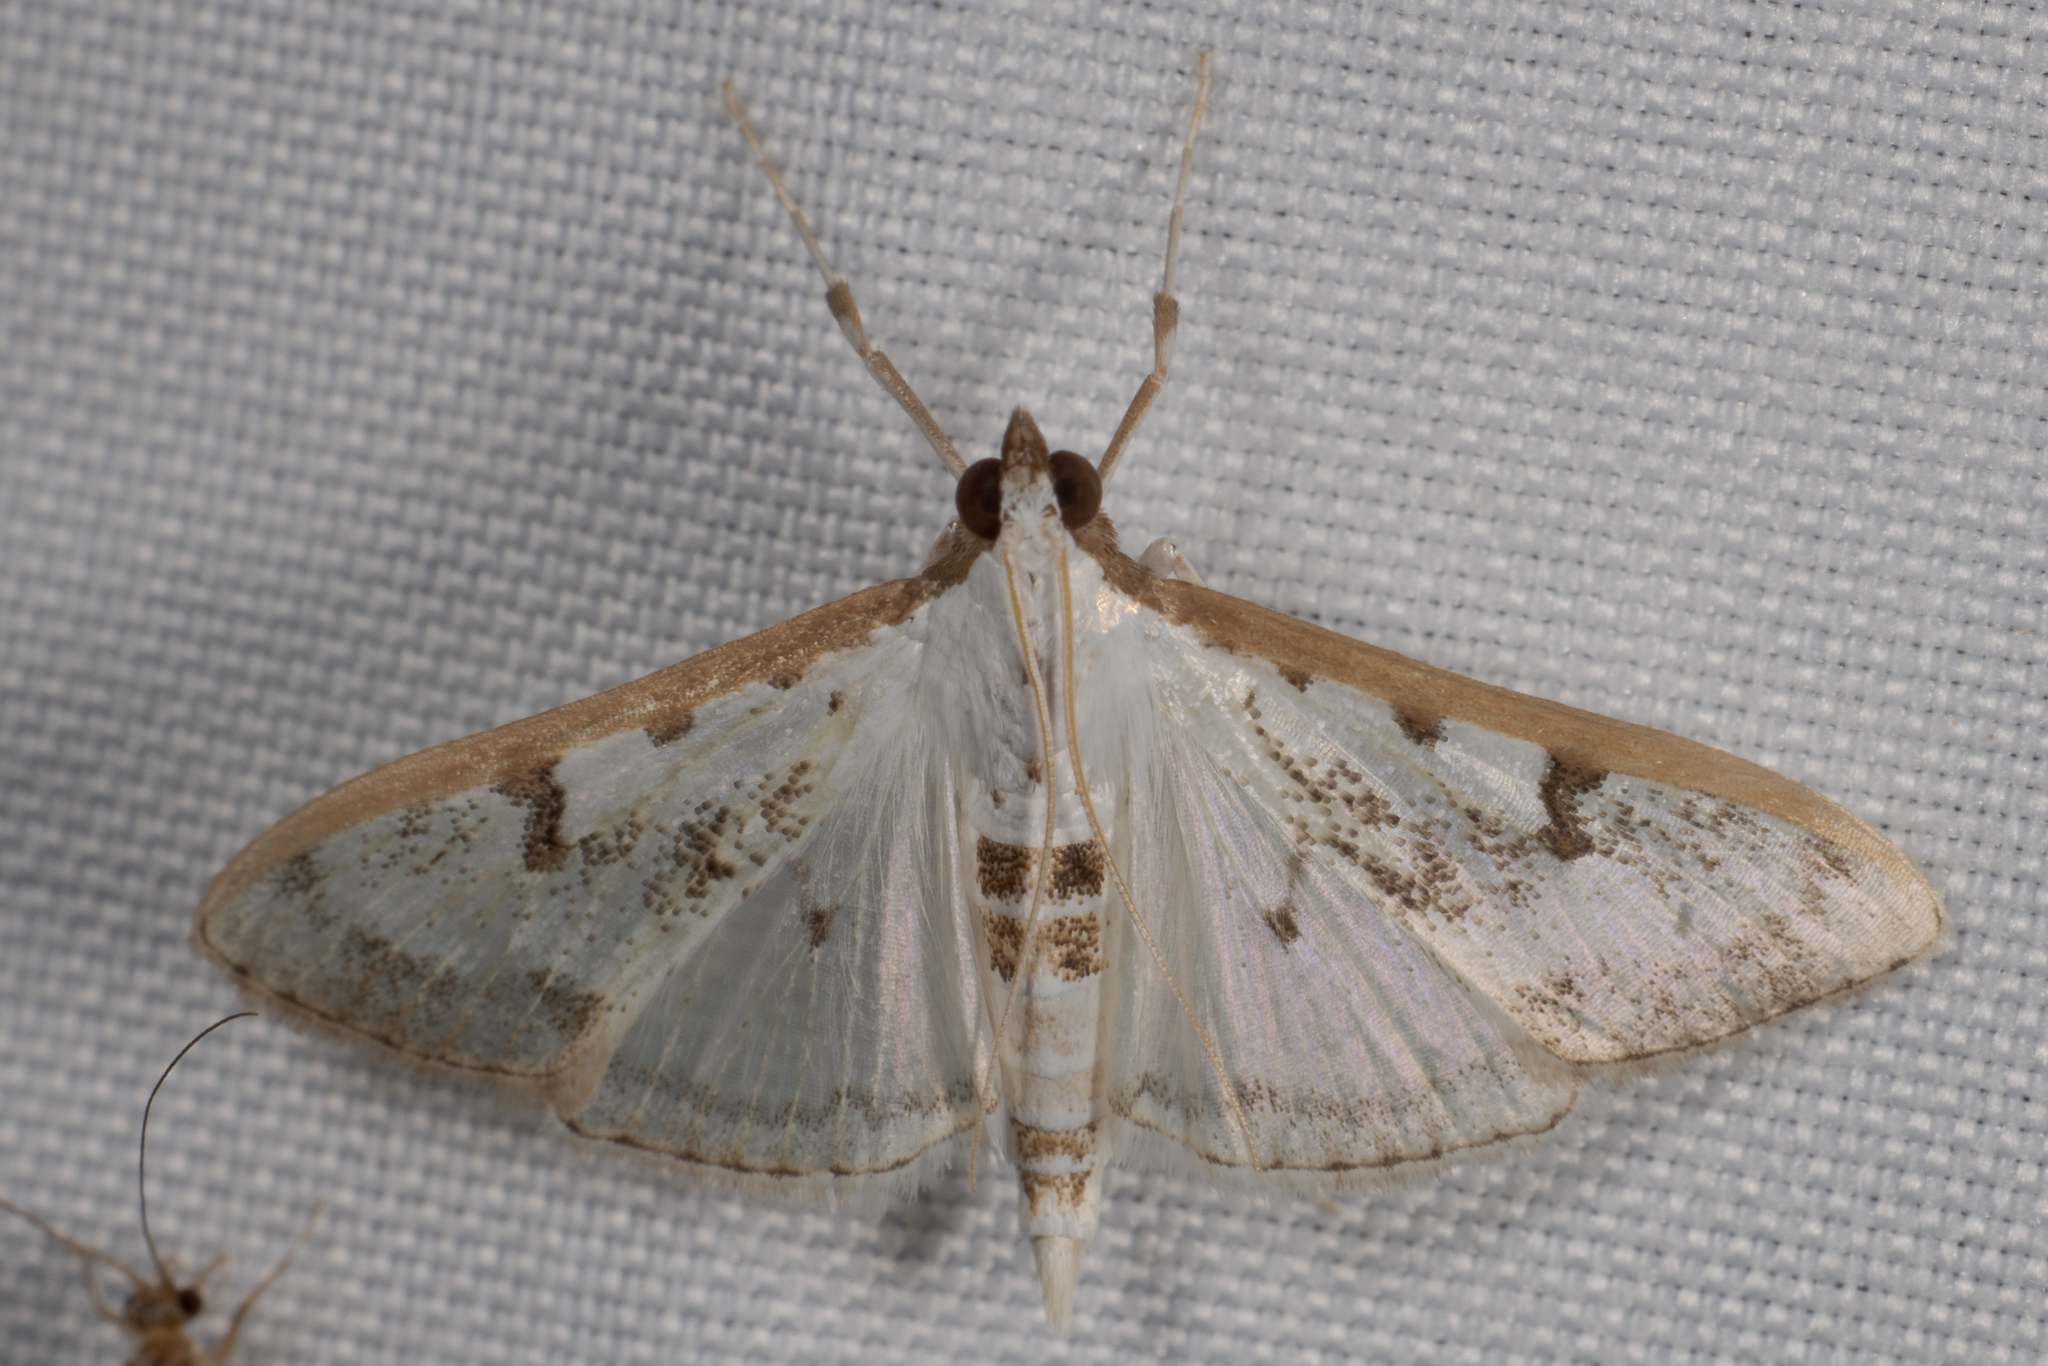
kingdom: Animalia
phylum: Arthropoda
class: Insecta
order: Lepidoptera
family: Crambidae
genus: Palpita
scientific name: Palpita gracilalis
